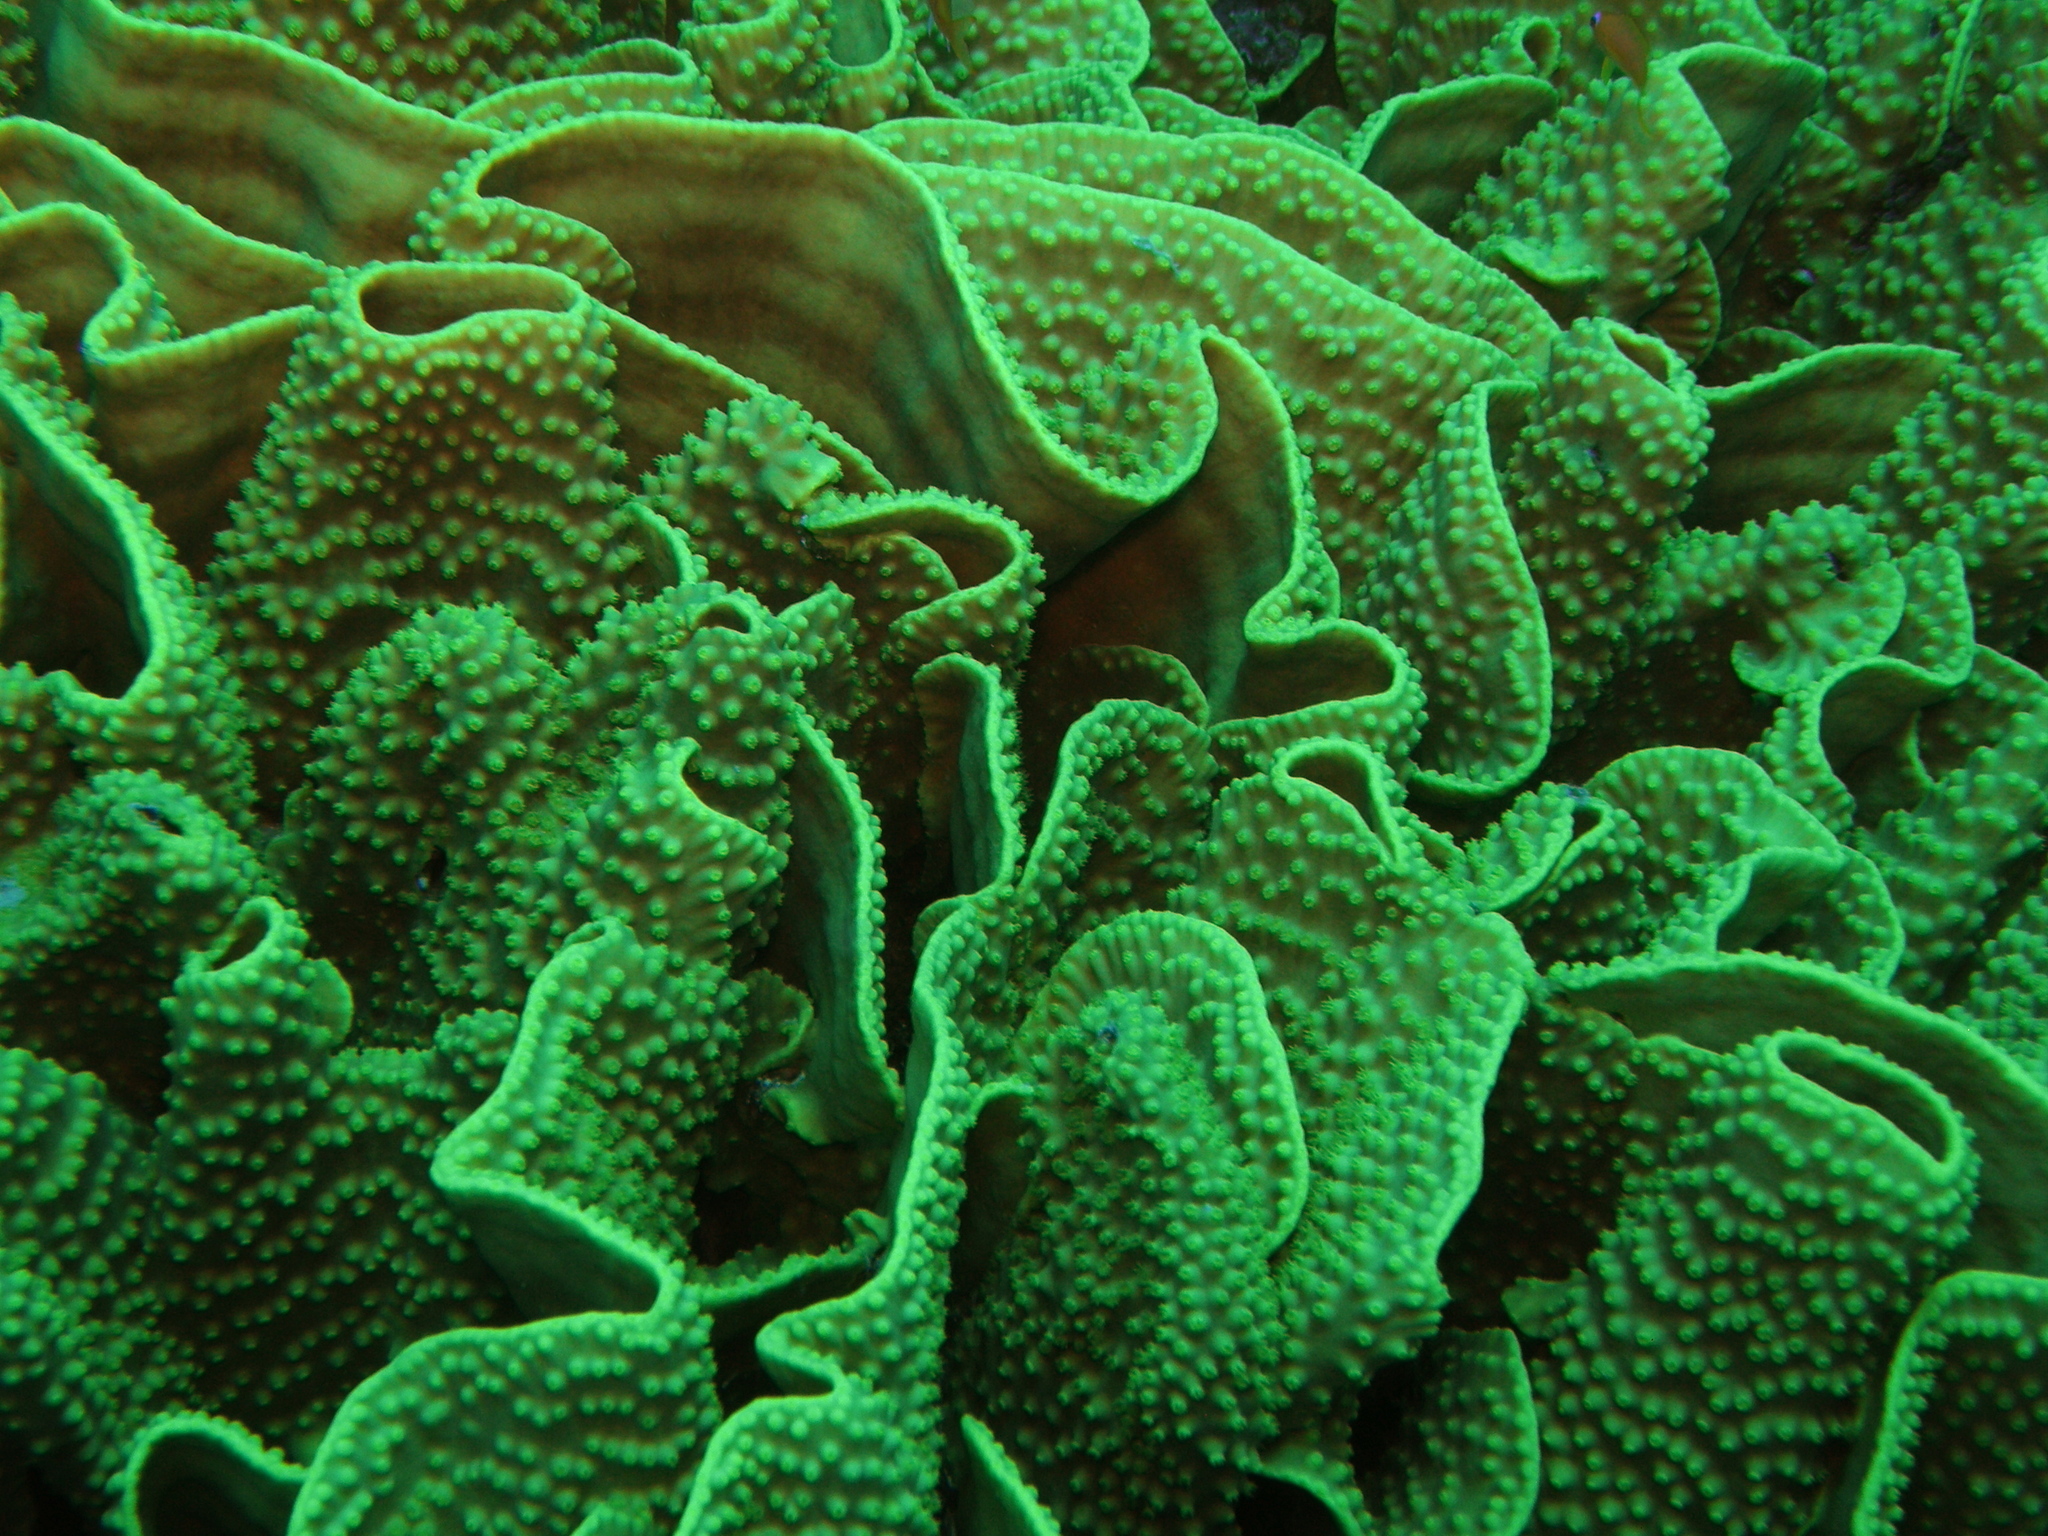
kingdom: Animalia
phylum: Cnidaria
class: Anthozoa
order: Scleractinia
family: Dendrophylliidae
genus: Turbinaria
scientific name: Turbinaria reniformis
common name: Disc coral
